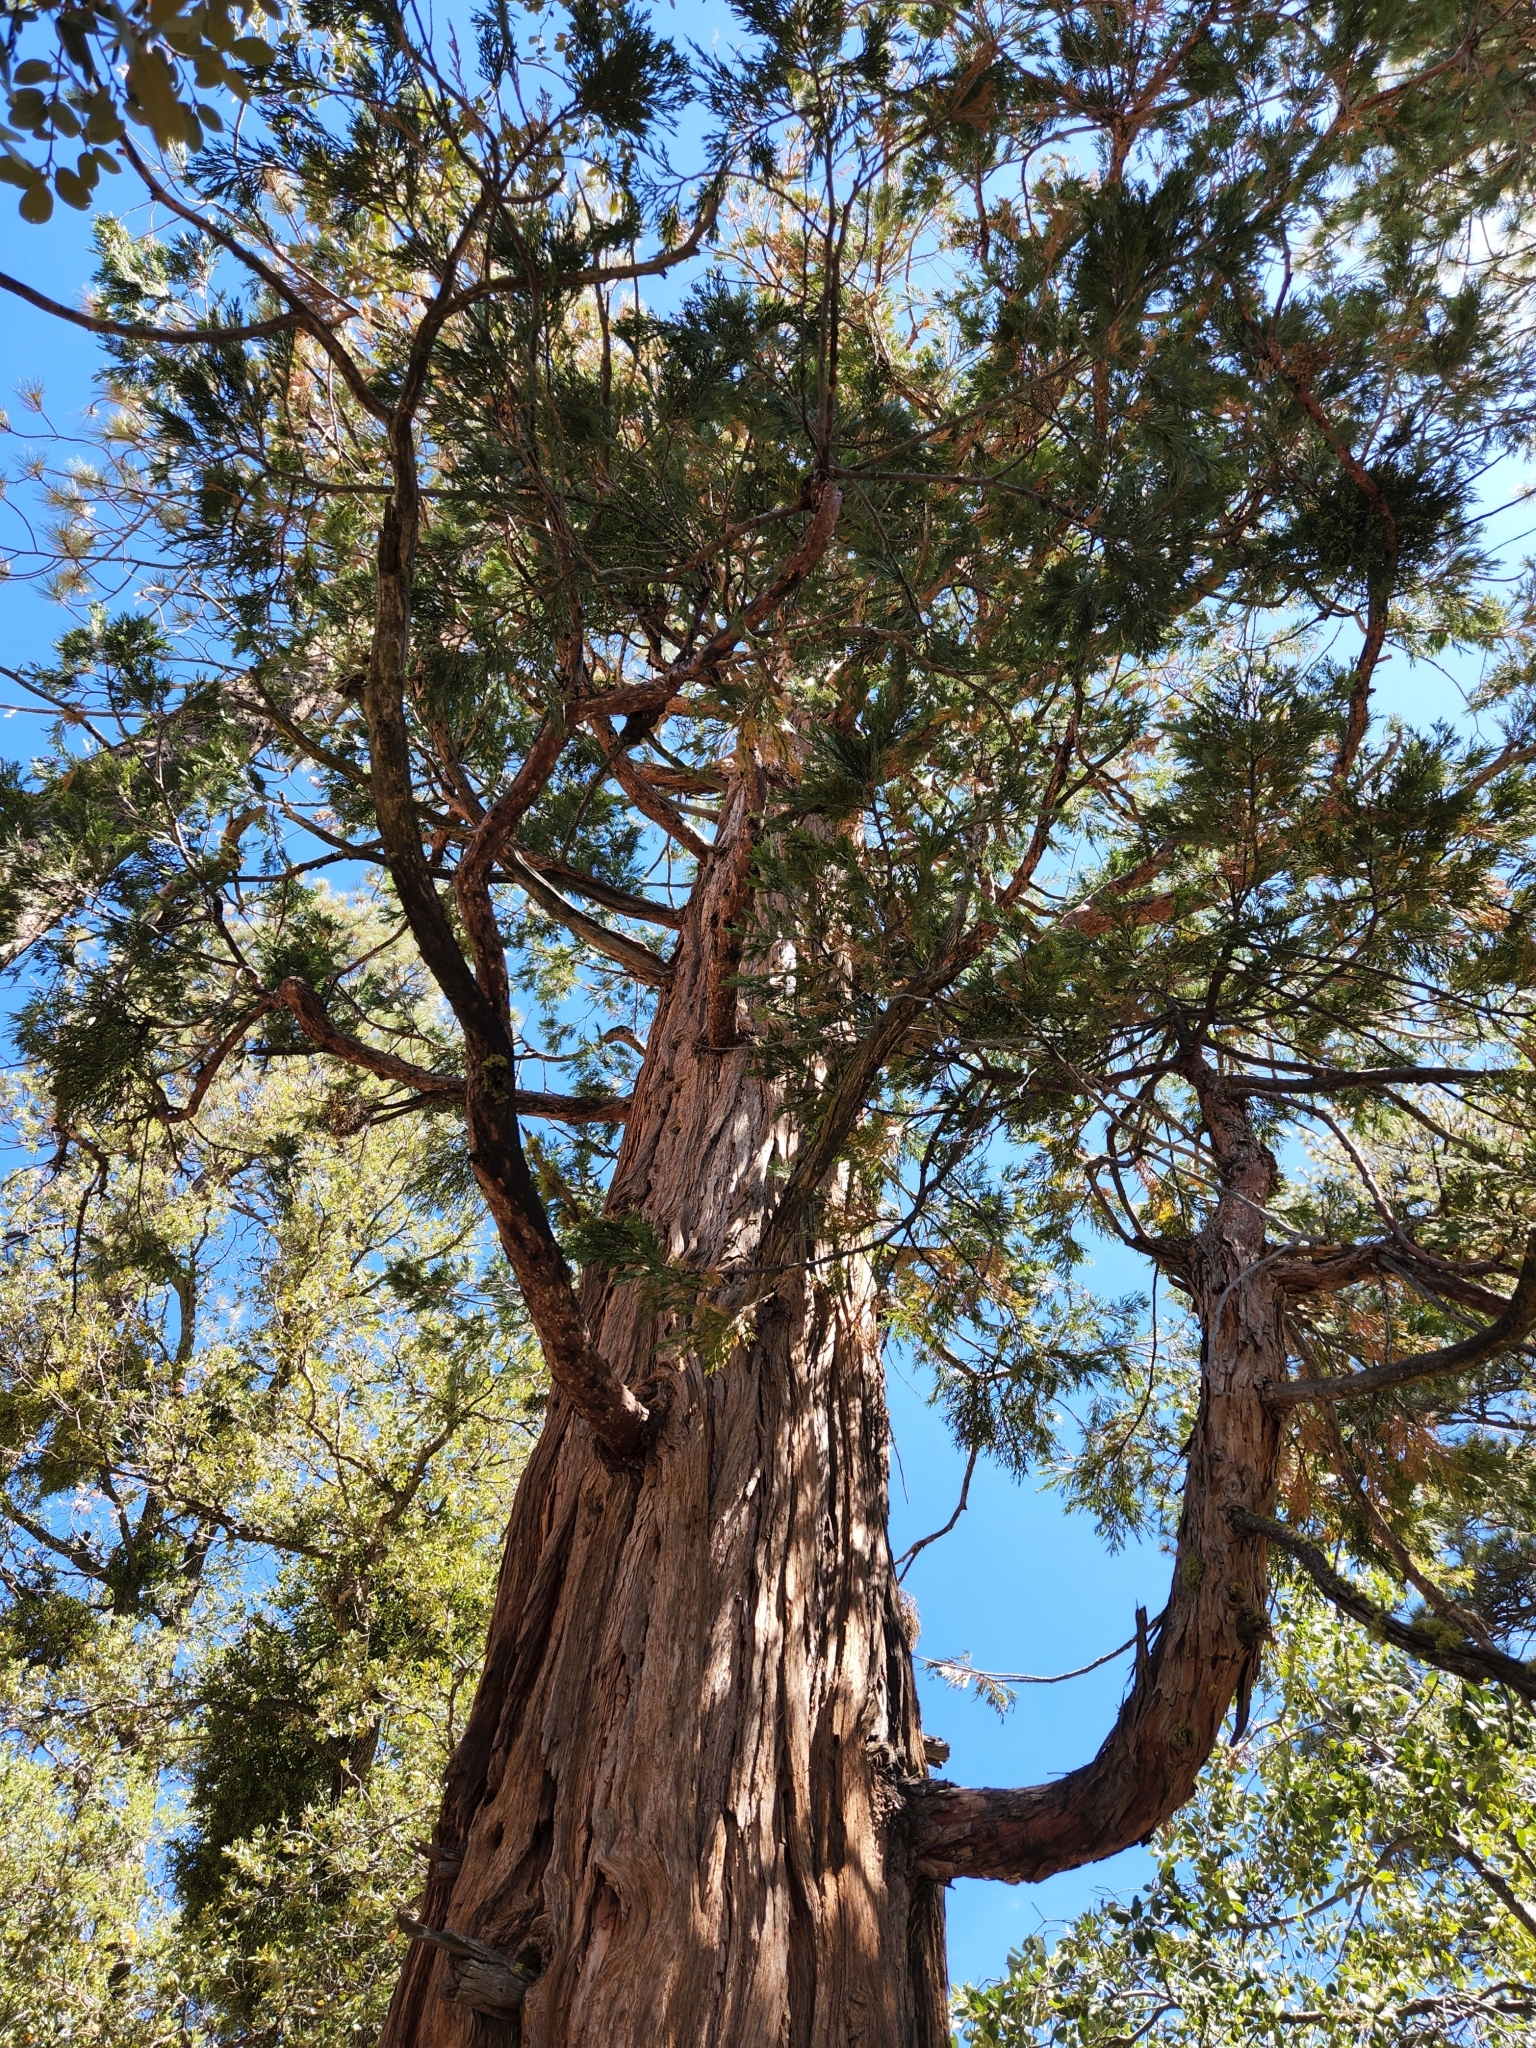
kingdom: Plantae
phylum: Tracheophyta
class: Pinopsida
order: Pinales
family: Cupressaceae
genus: Calocedrus
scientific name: Calocedrus decurrens
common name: Californian incense-cedar
